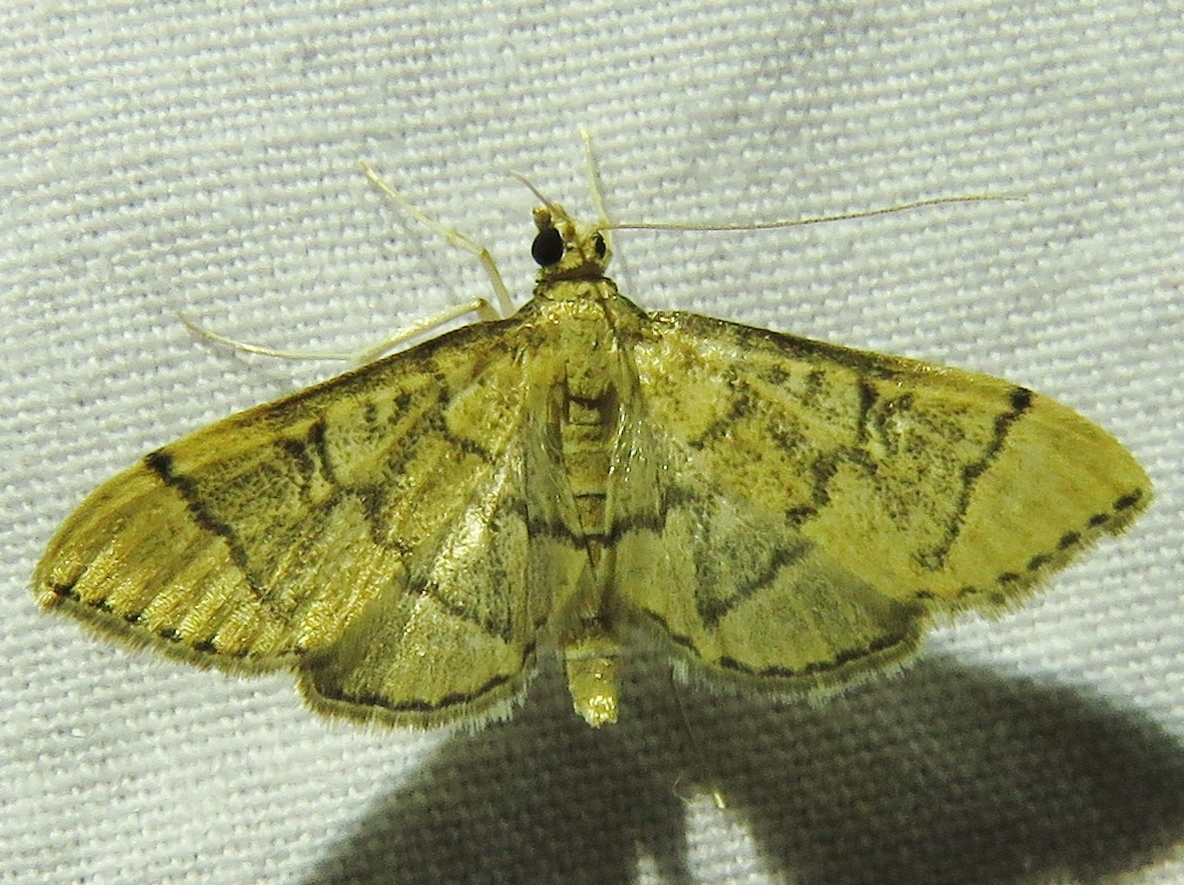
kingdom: Animalia
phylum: Arthropoda
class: Insecta
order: Lepidoptera
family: Crambidae
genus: Lamprosema
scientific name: Lamprosema Blepharomastix ranalis
